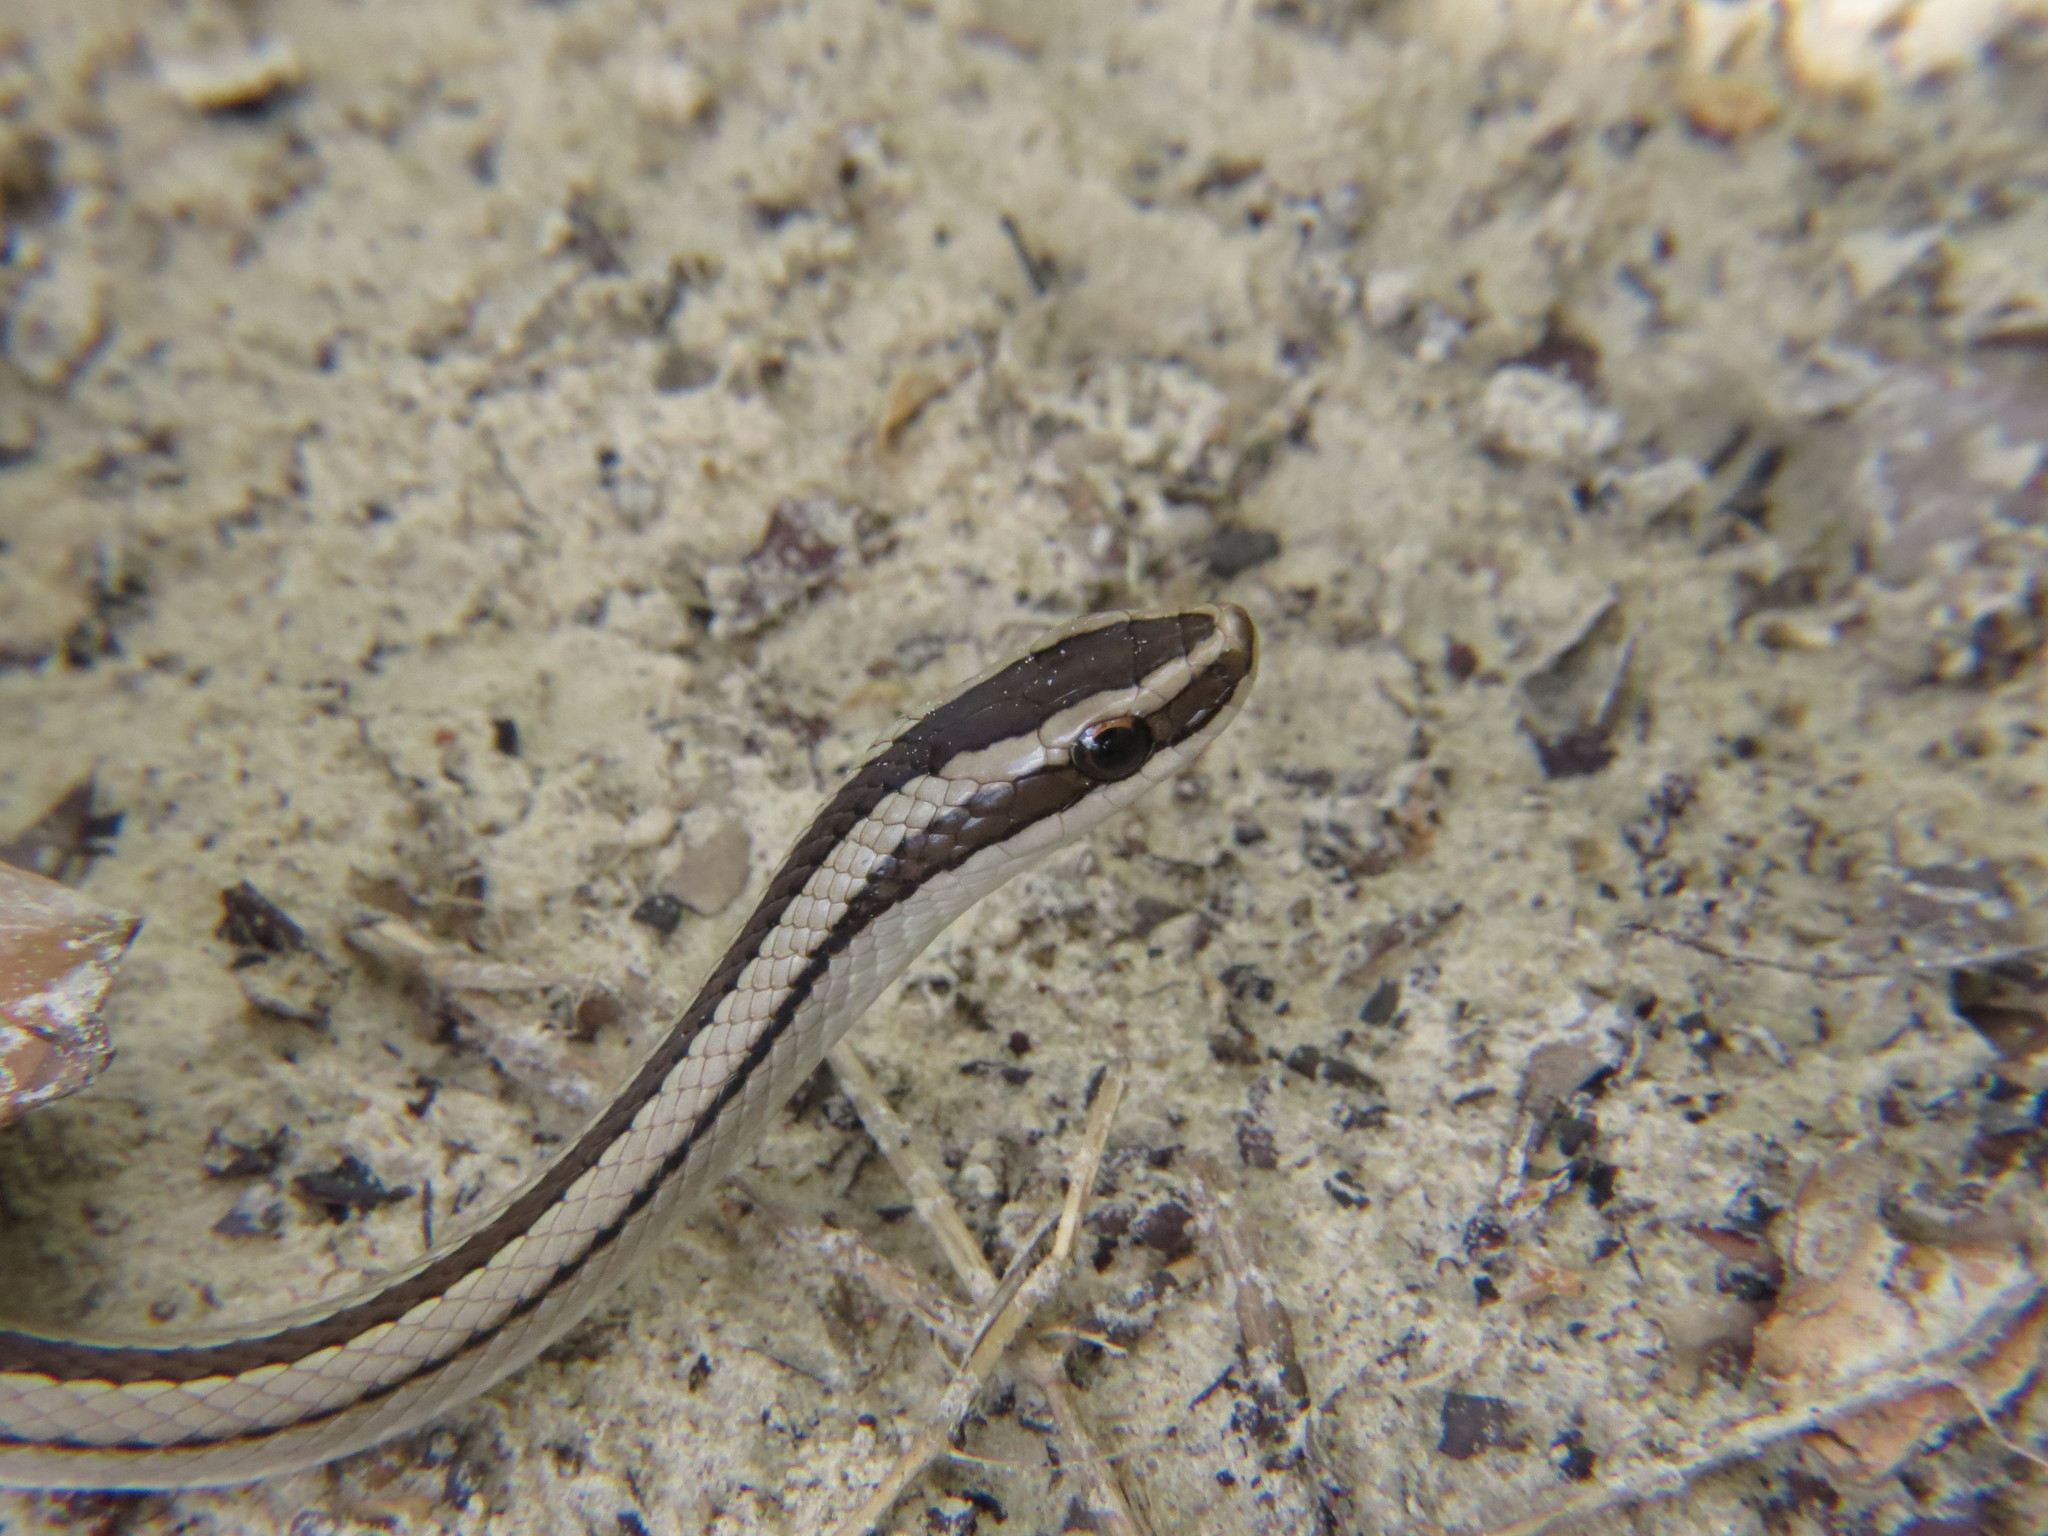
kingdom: Animalia
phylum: Chordata
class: Squamata
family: Colubridae
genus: Lygophis
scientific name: Lygophis lineatus
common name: Lined ground snake
